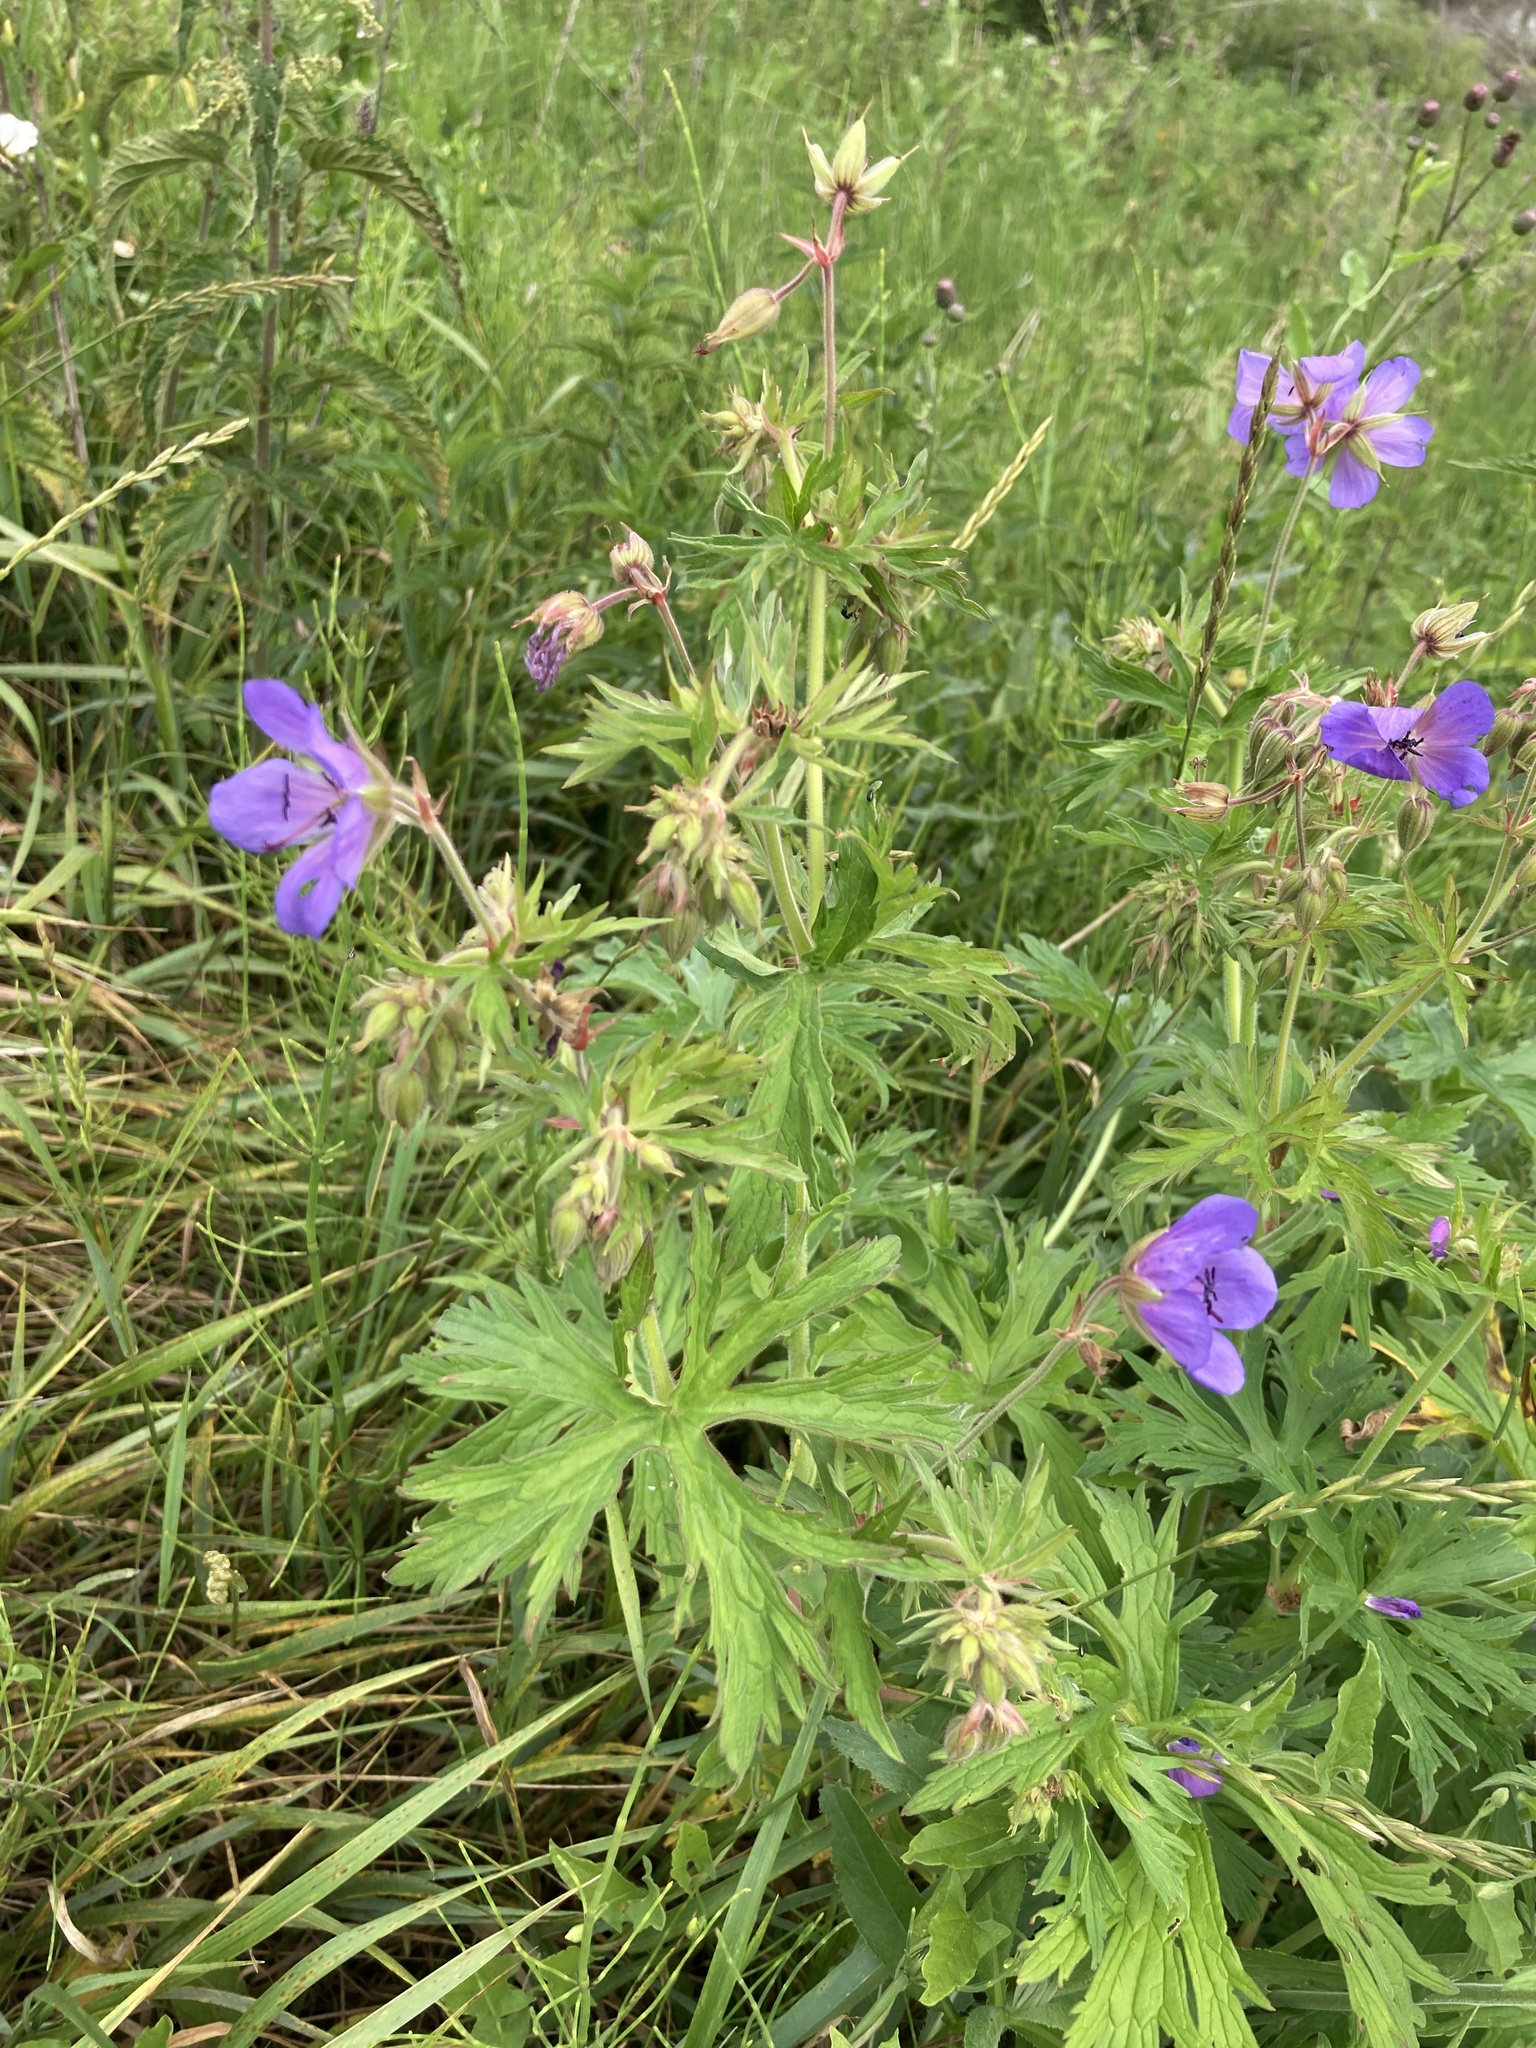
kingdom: Plantae
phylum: Tracheophyta
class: Magnoliopsida
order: Geraniales
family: Geraniaceae
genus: Geranium
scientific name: Geranium pratense
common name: Meadow crane's-bill
